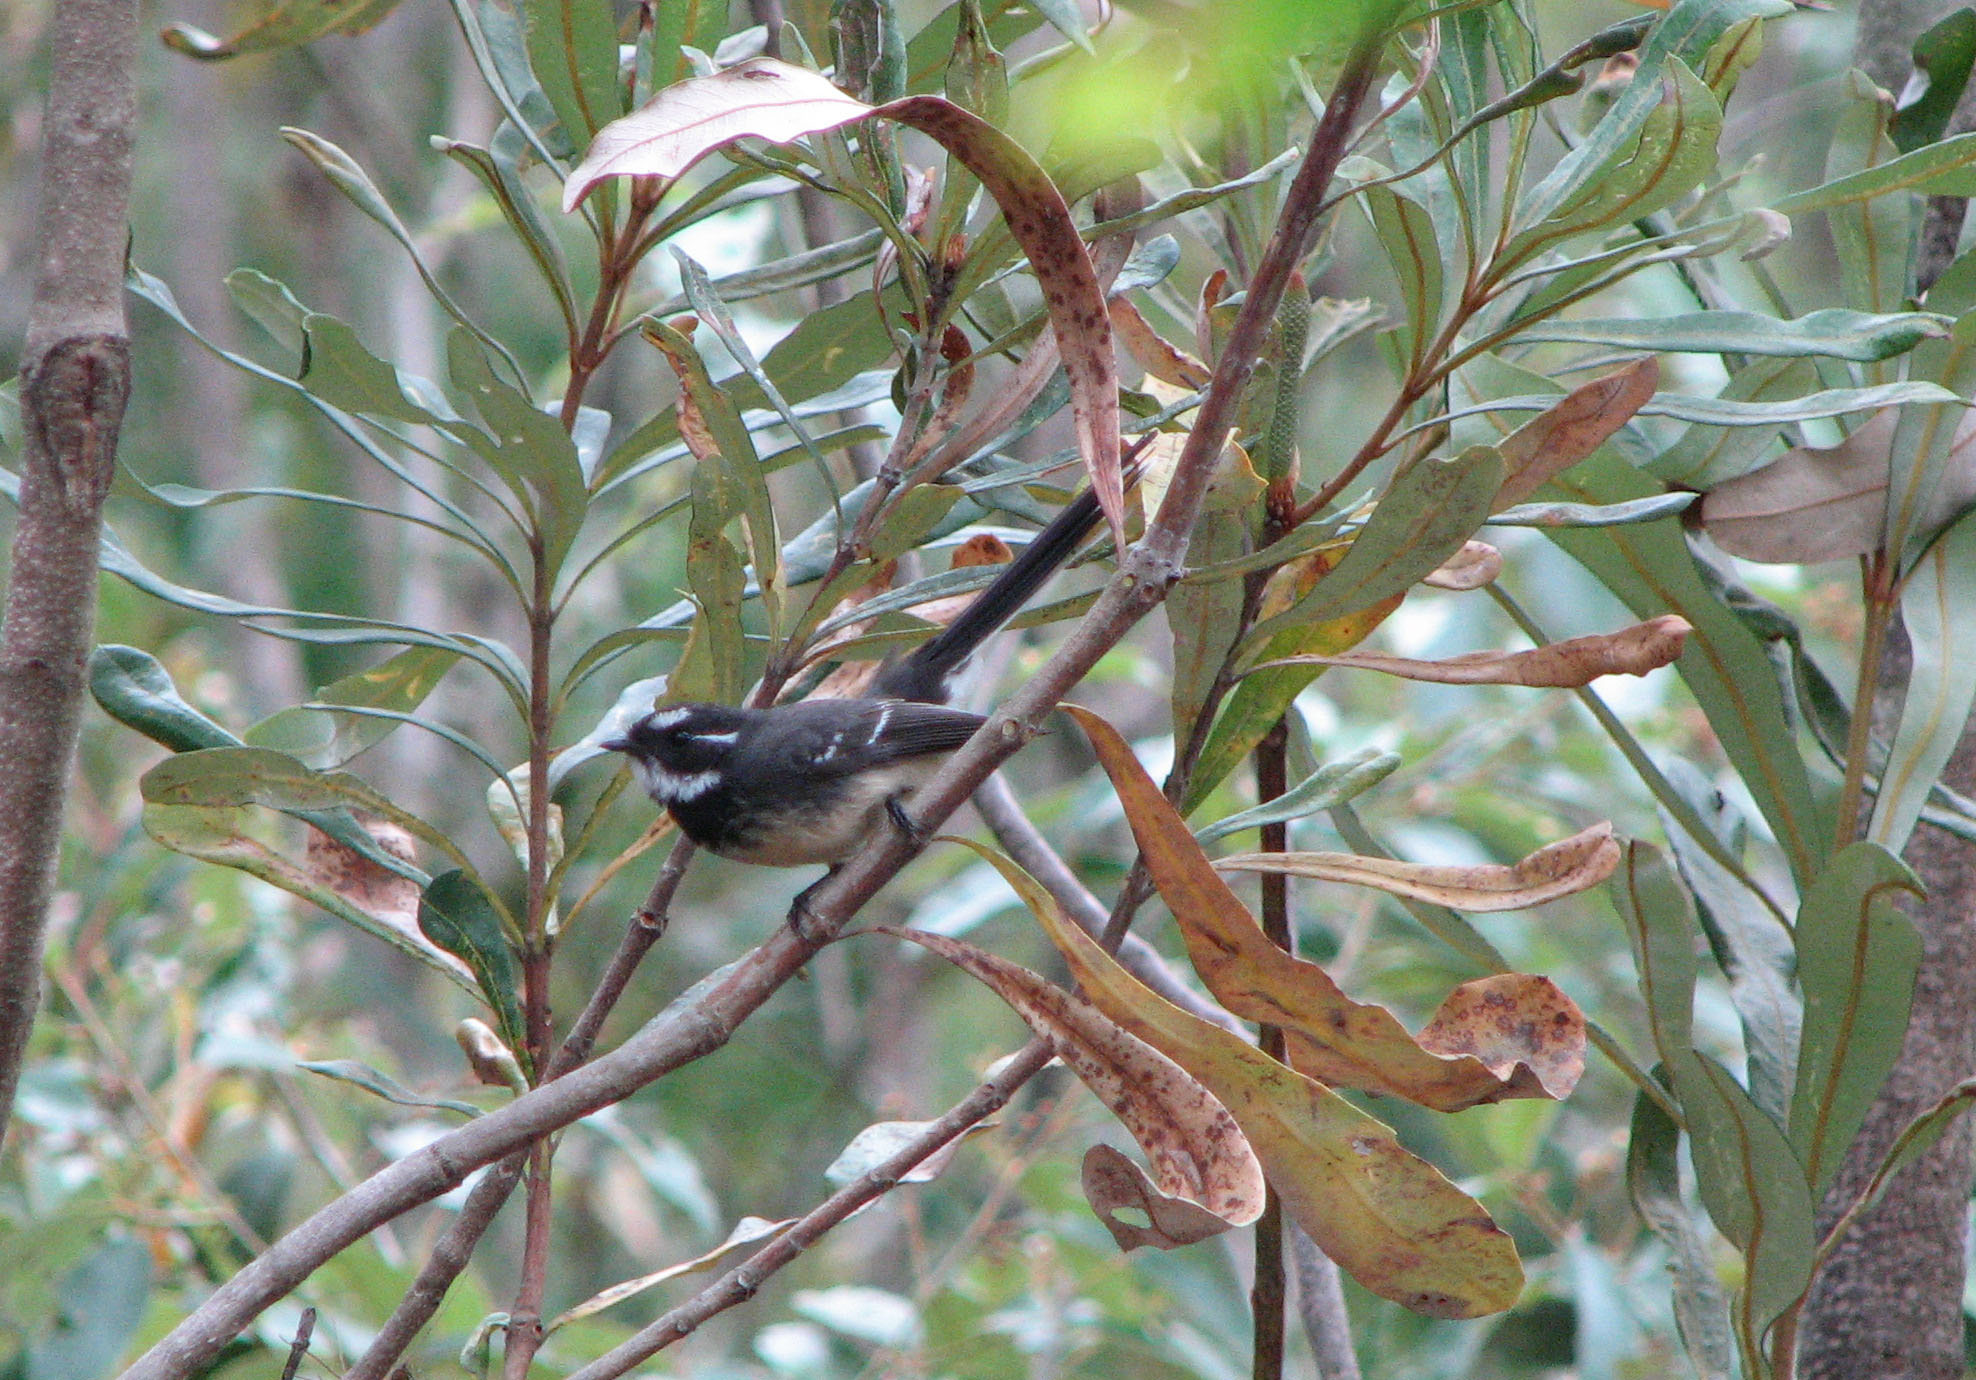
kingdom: Animalia
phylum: Chordata
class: Aves
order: Passeriformes
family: Rhipiduridae
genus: Rhipidura
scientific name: Rhipidura albiscapa
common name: Grey fantail
